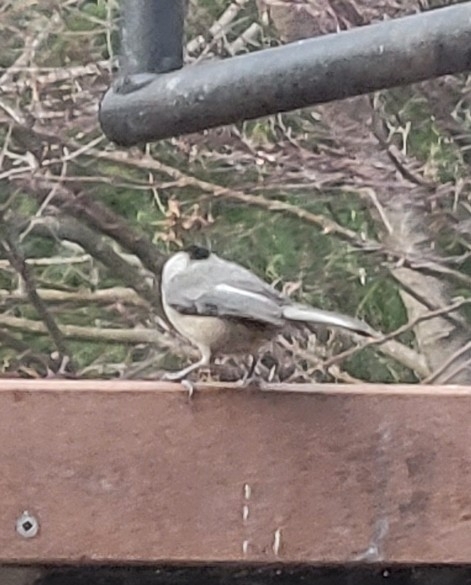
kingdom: Animalia
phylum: Chordata
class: Aves
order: Passeriformes
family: Paridae
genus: Poecile
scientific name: Poecile carolinensis
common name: Carolina chickadee
